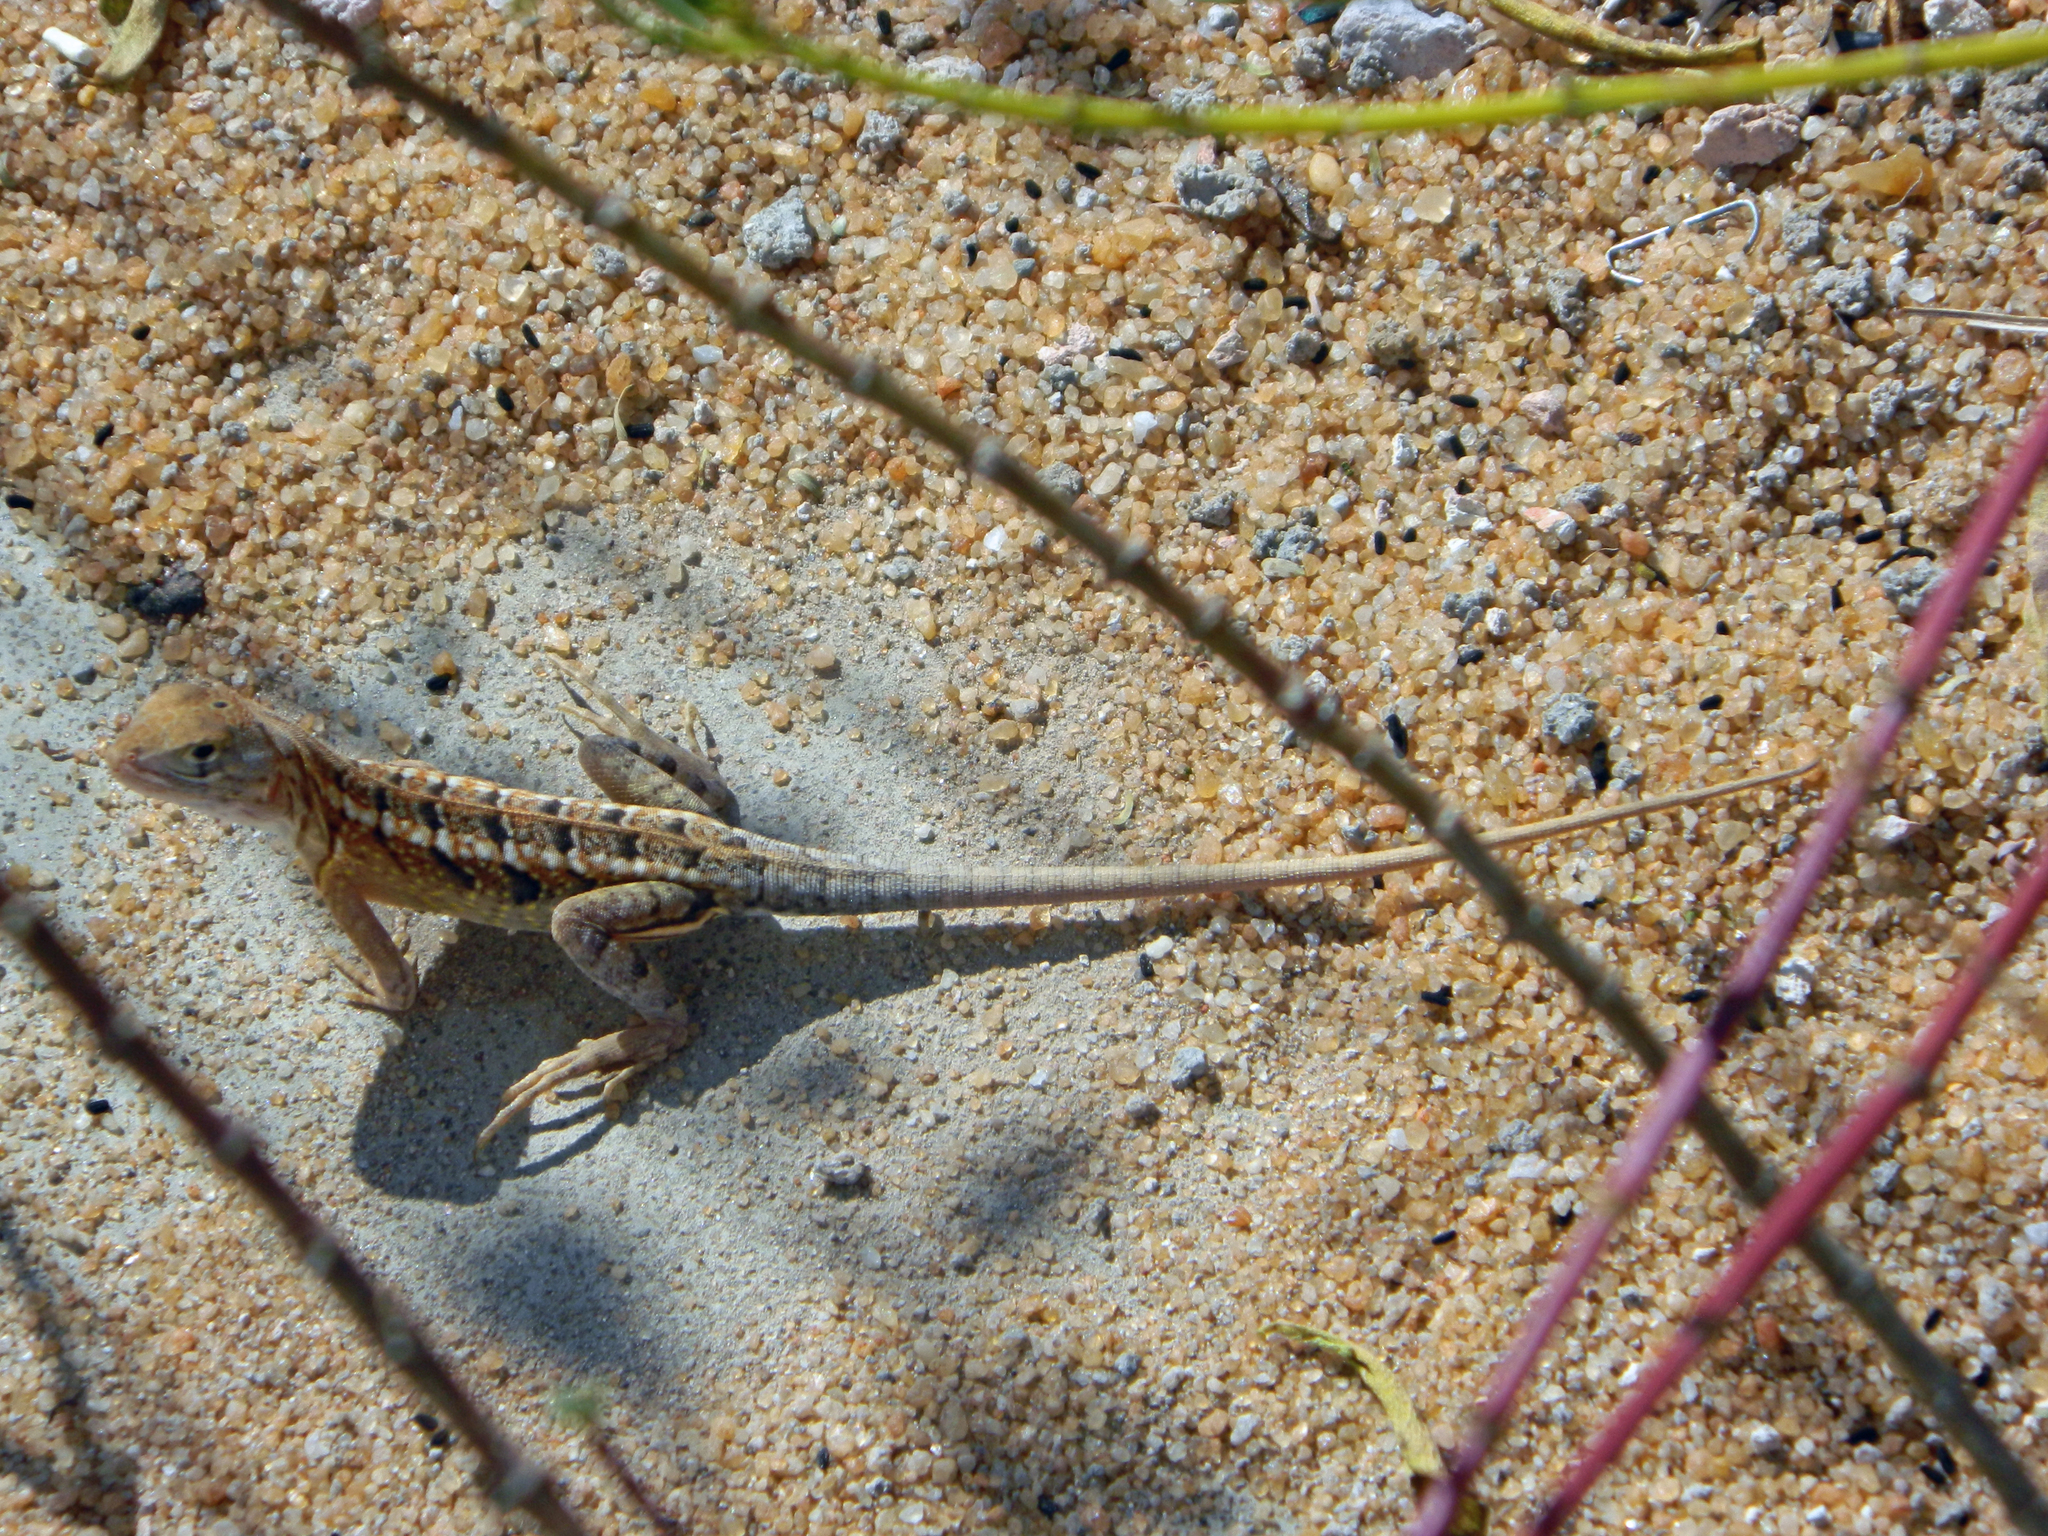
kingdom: Animalia
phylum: Chordata
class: Squamata
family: Opluridae
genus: Chalarodon
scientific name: Chalarodon madagascariensis
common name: Madagascar iguana
